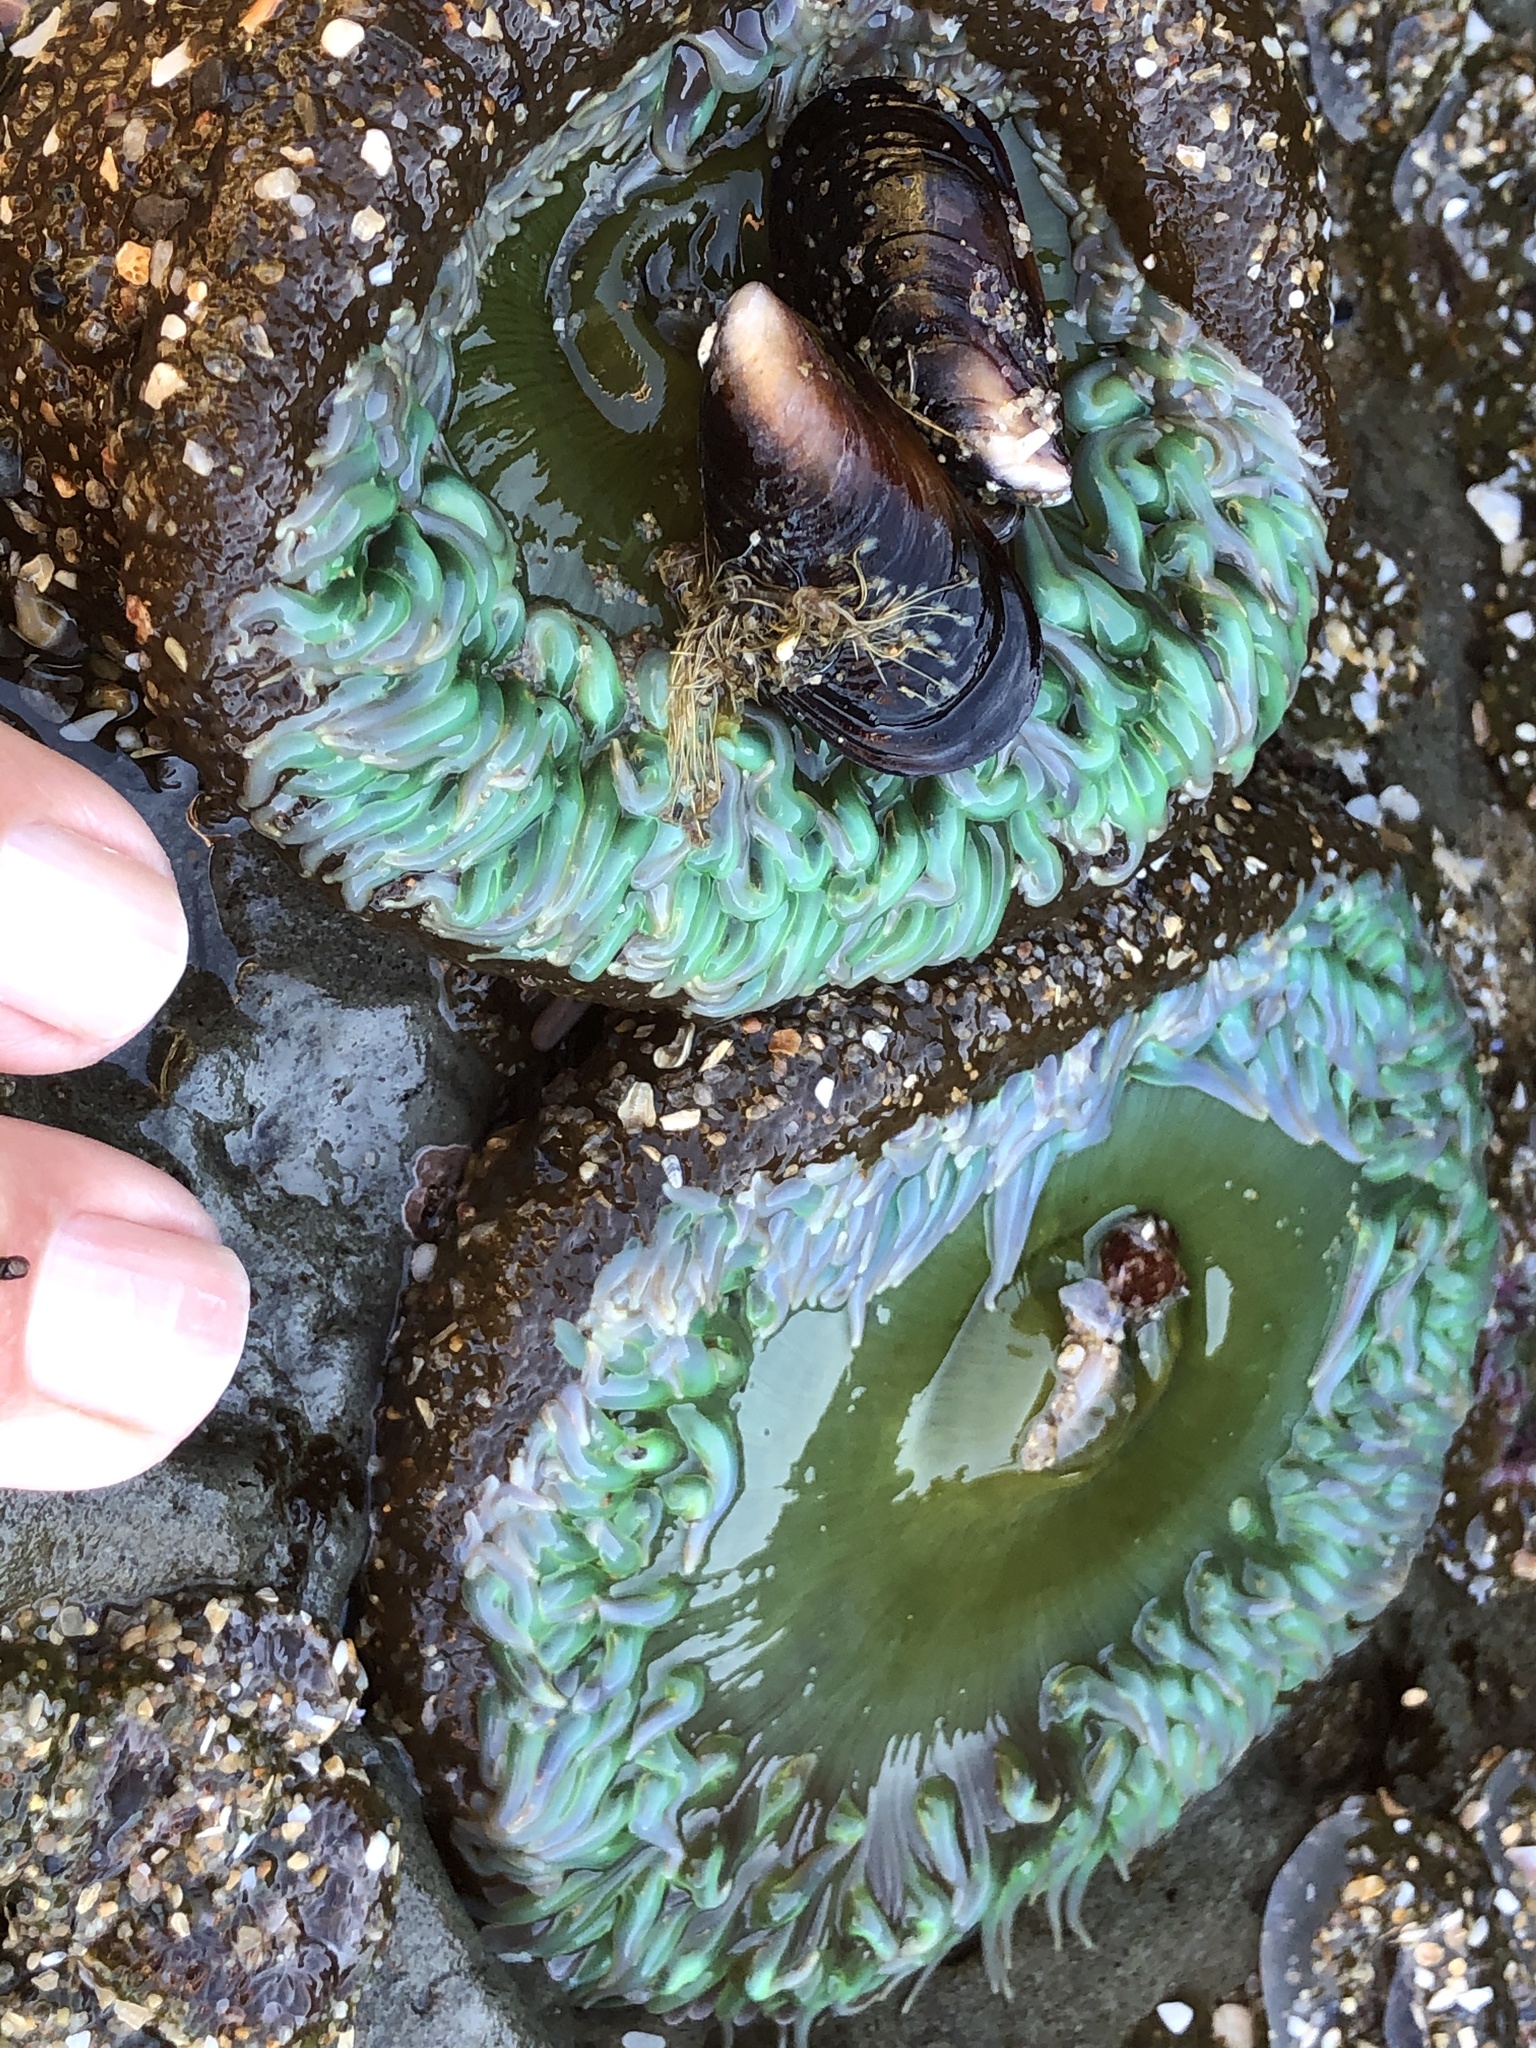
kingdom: Animalia
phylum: Cnidaria
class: Anthozoa
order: Actiniaria
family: Actiniidae
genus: Anthopleura
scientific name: Anthopleura xanthogrammica
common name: Giant green anemone
